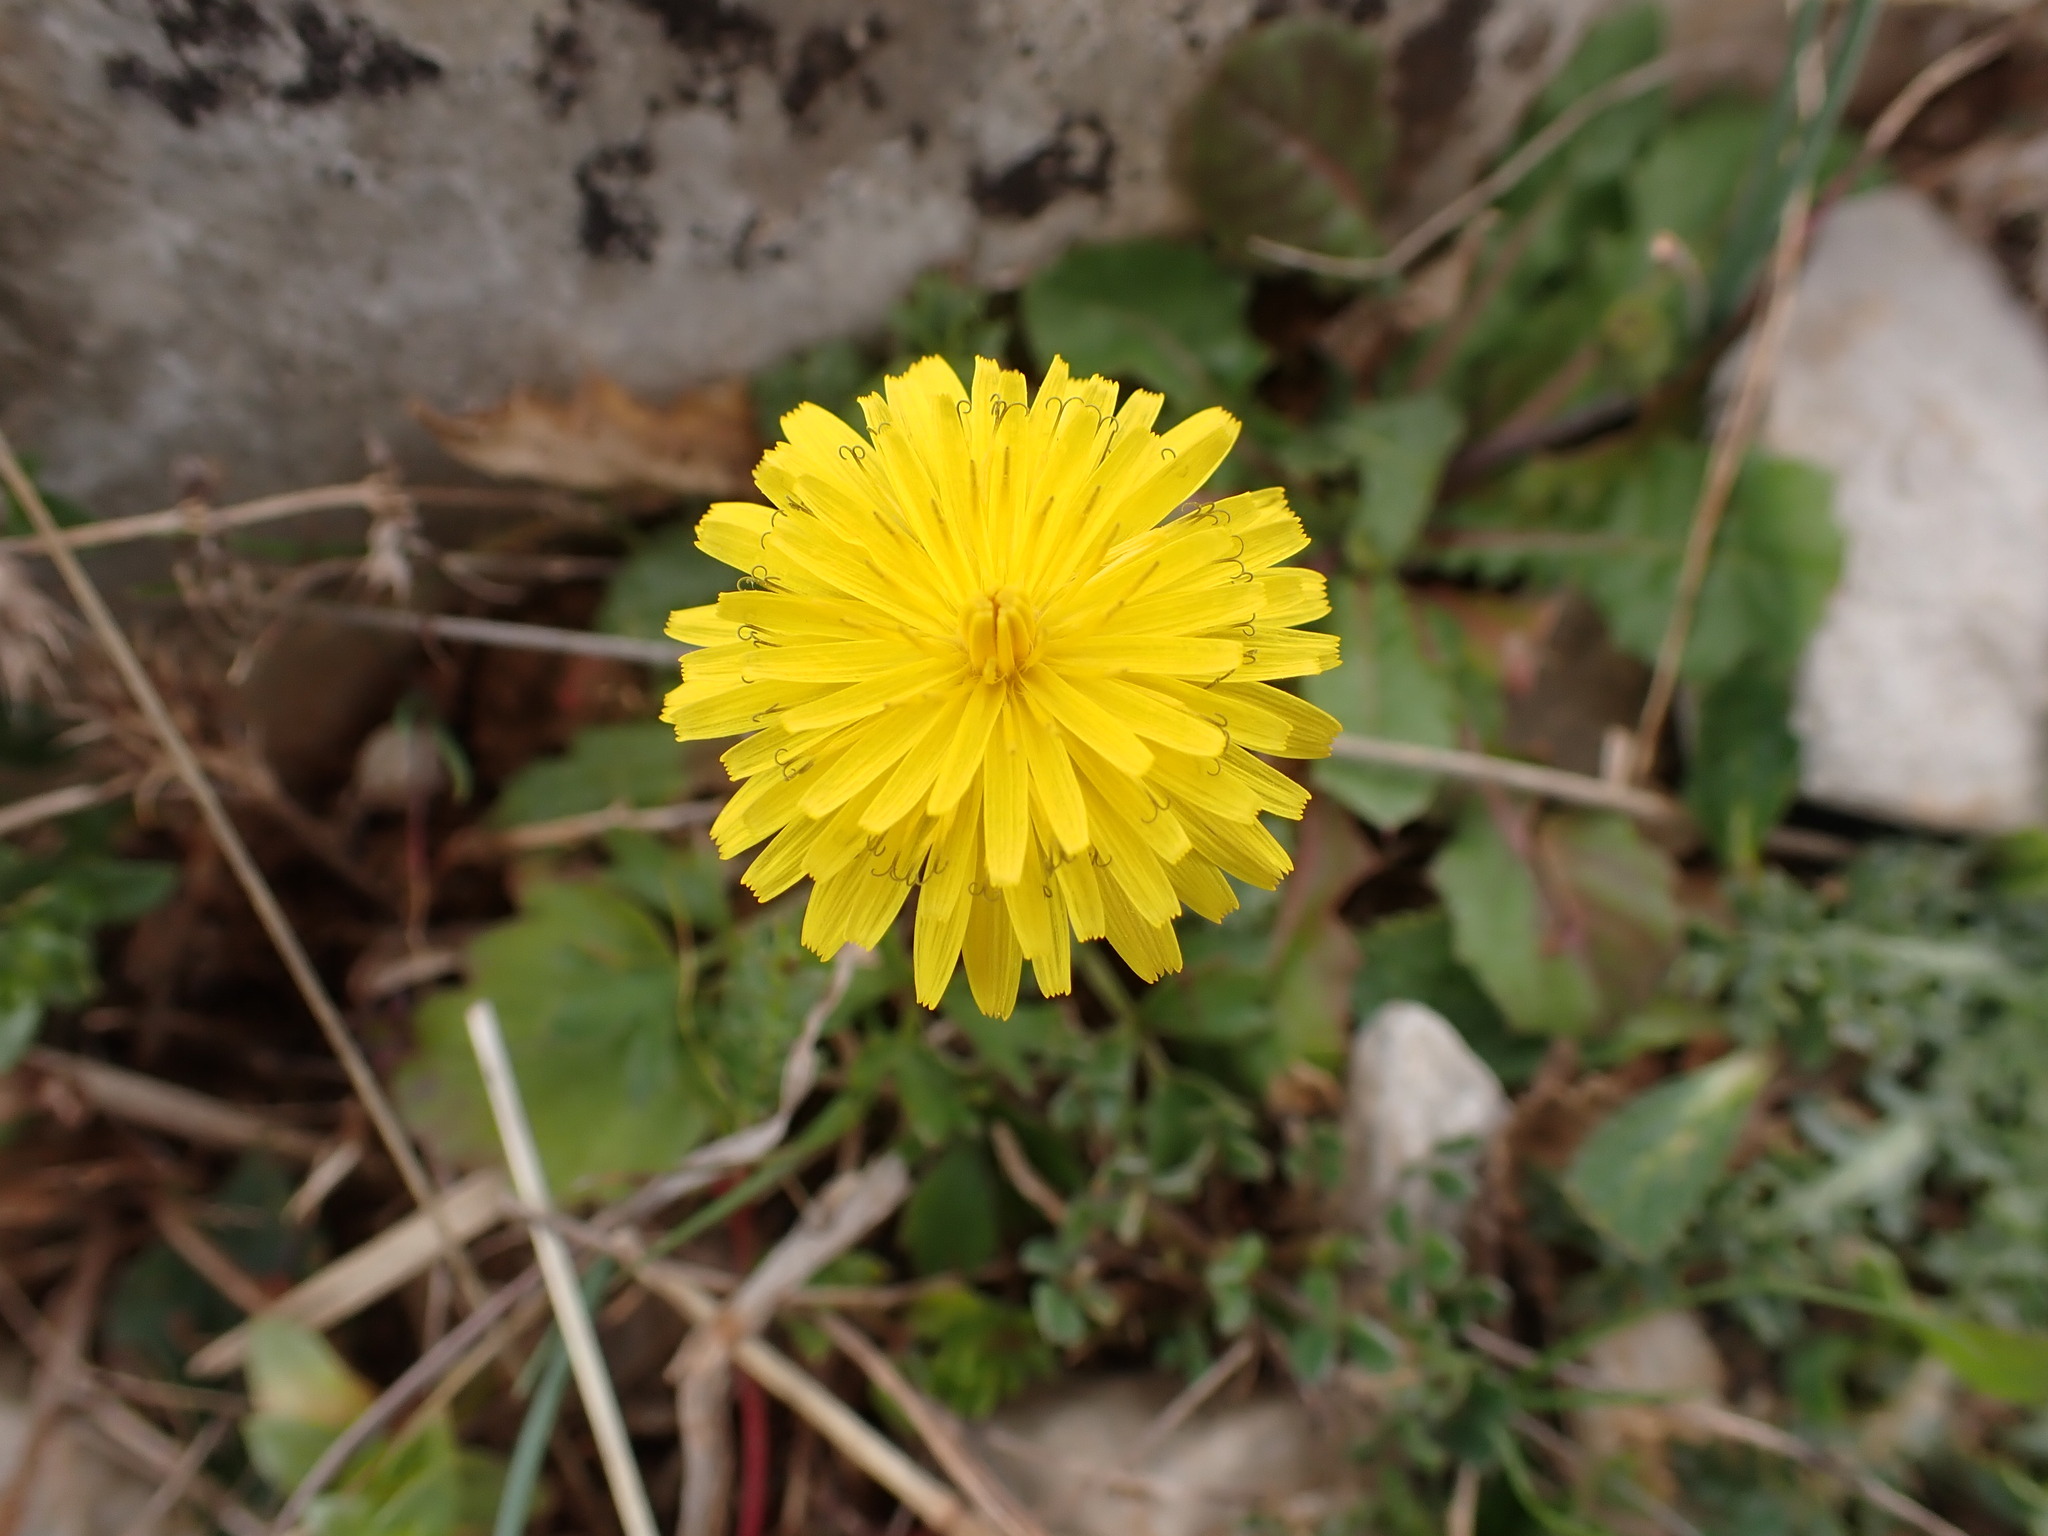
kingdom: Plantae
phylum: Tracheophyta
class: Magnoliopsida
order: Asterales
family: Asteraceae
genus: Crepis
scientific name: Crepis sancta
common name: Hawk's-beard
